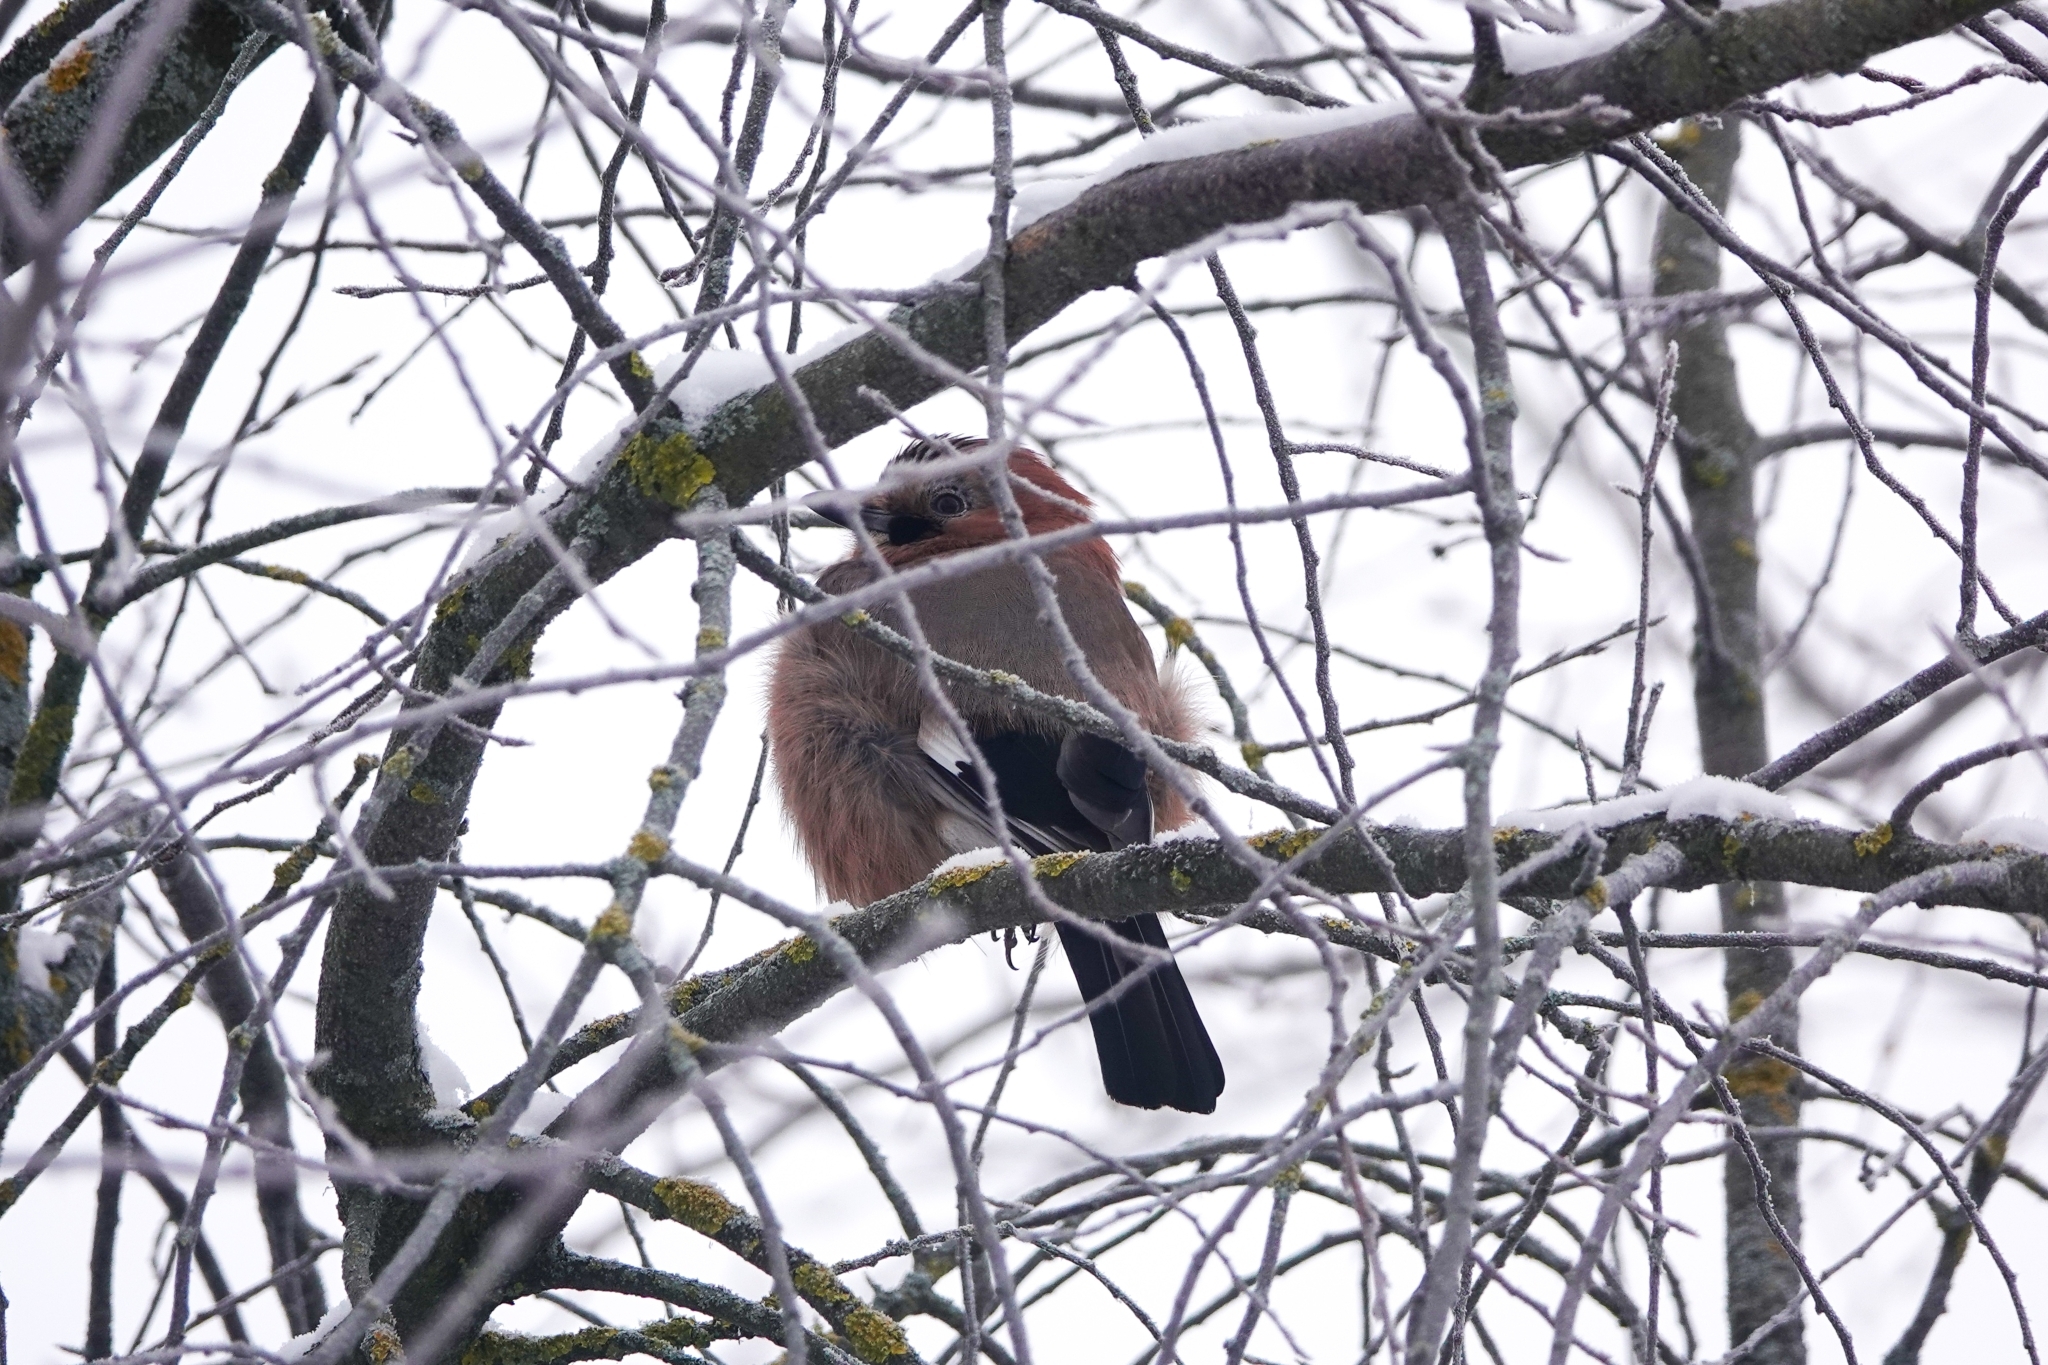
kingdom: Animalia
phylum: Chordata
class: Aves
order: Passeriformes
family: Corvidae
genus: Garrulus
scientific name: Garrulus glandarius
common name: Eurasian jay
